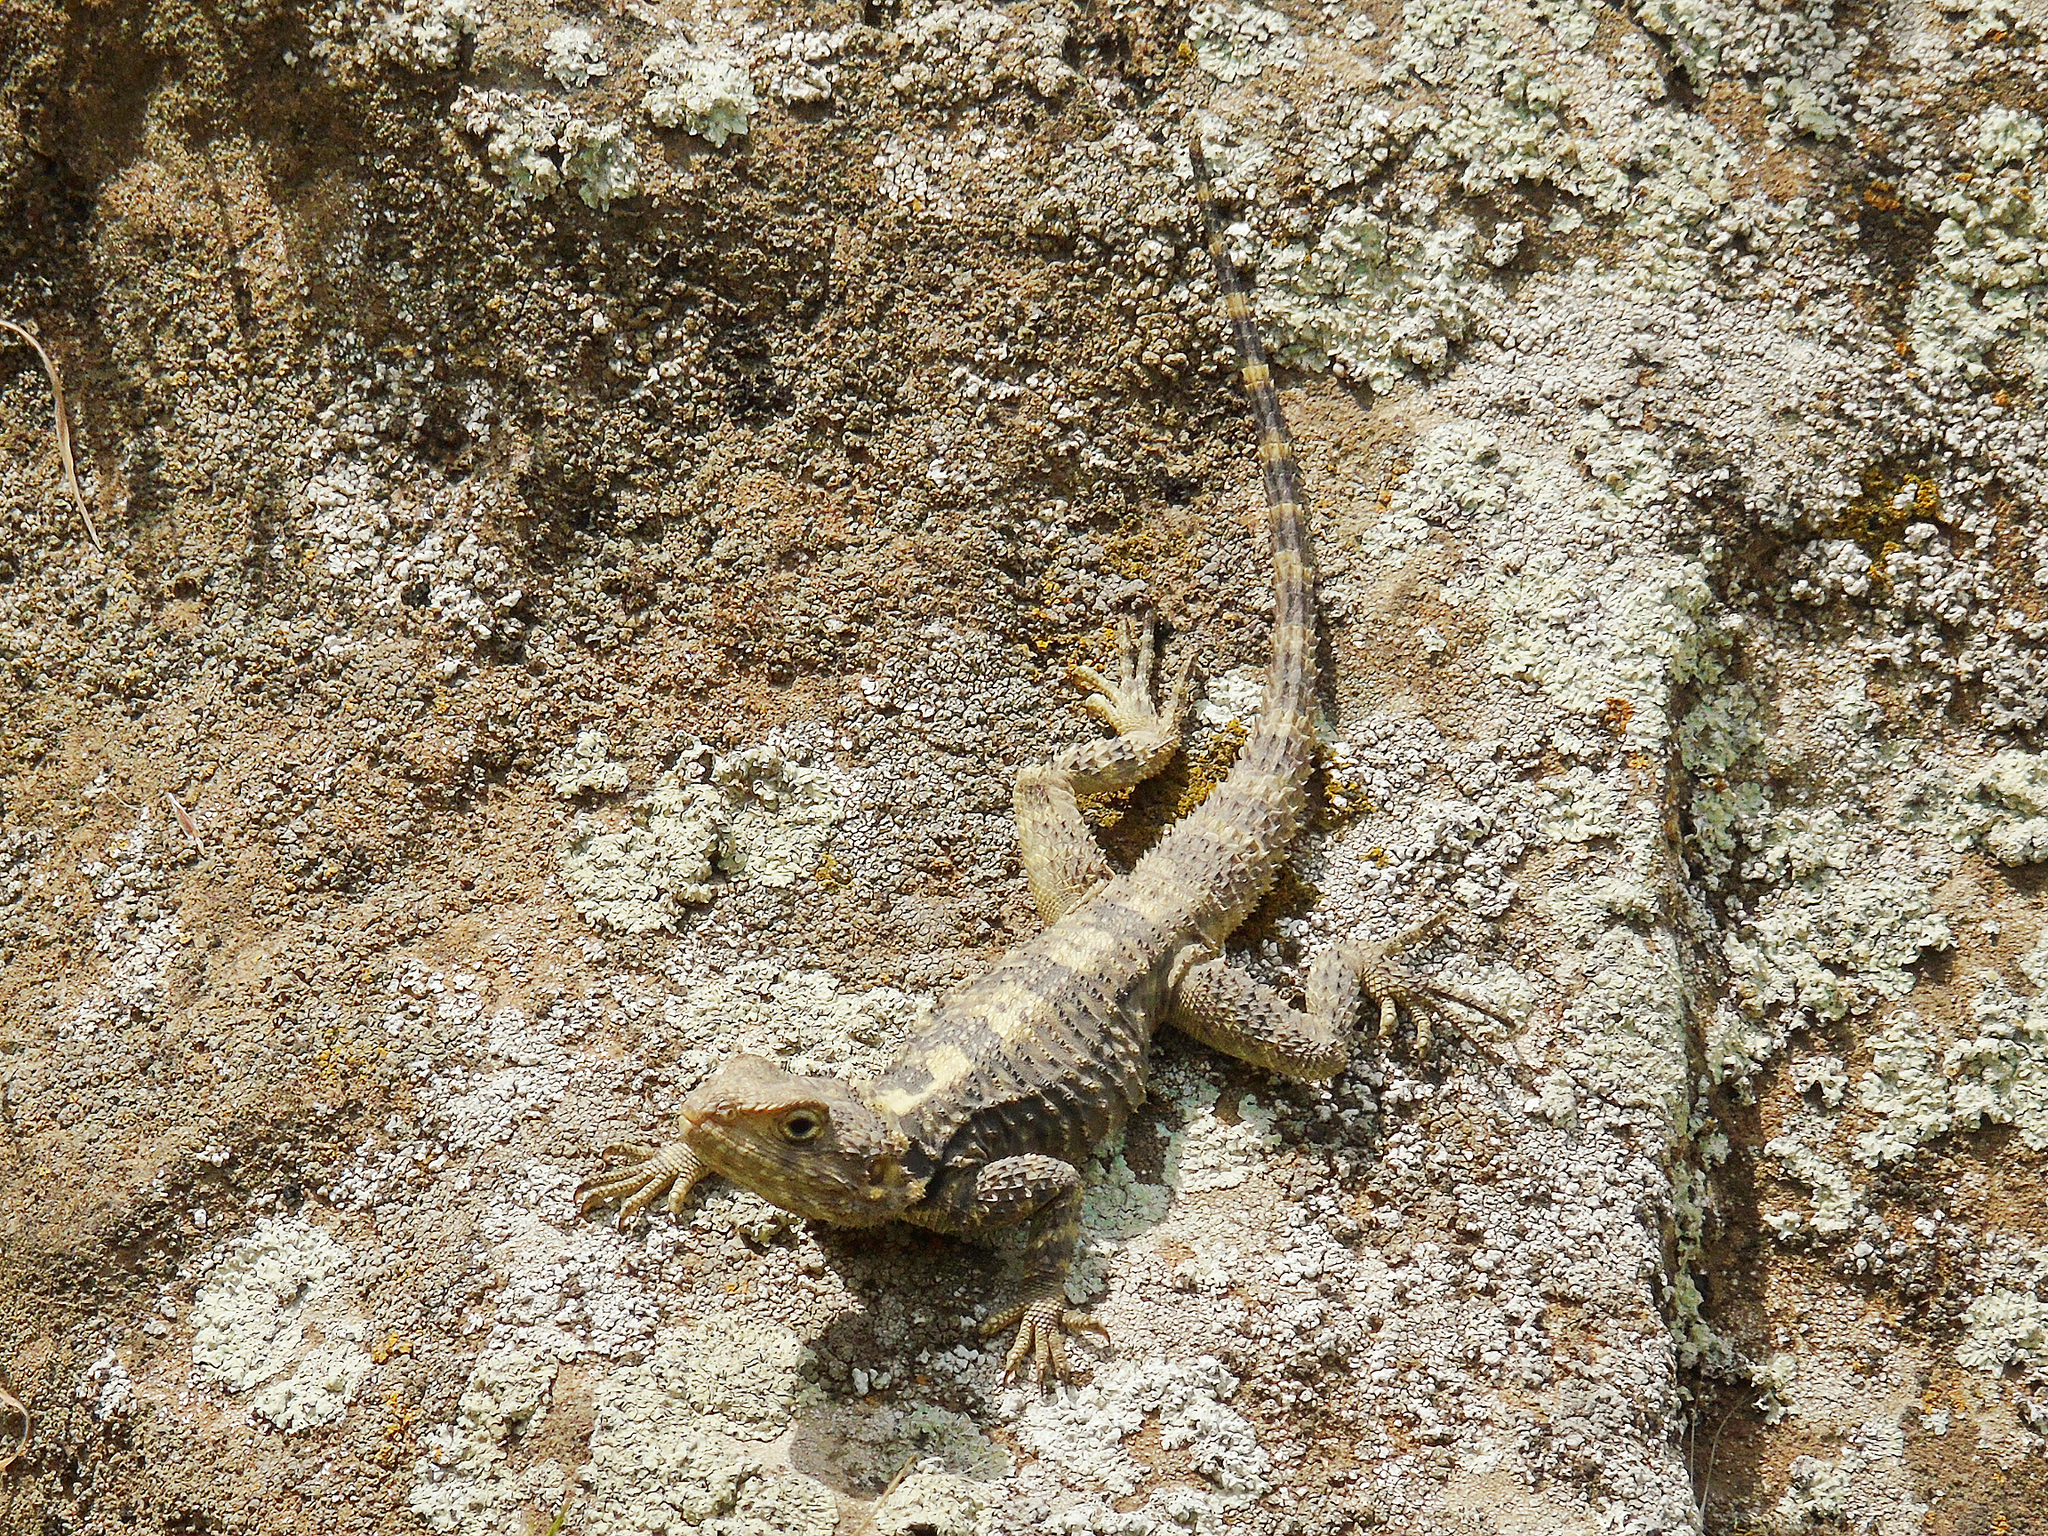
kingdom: Animalia
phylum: Chordata
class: Squamata
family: Agamidae
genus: Stellagama
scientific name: Stellagama stellio
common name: Starred agama
